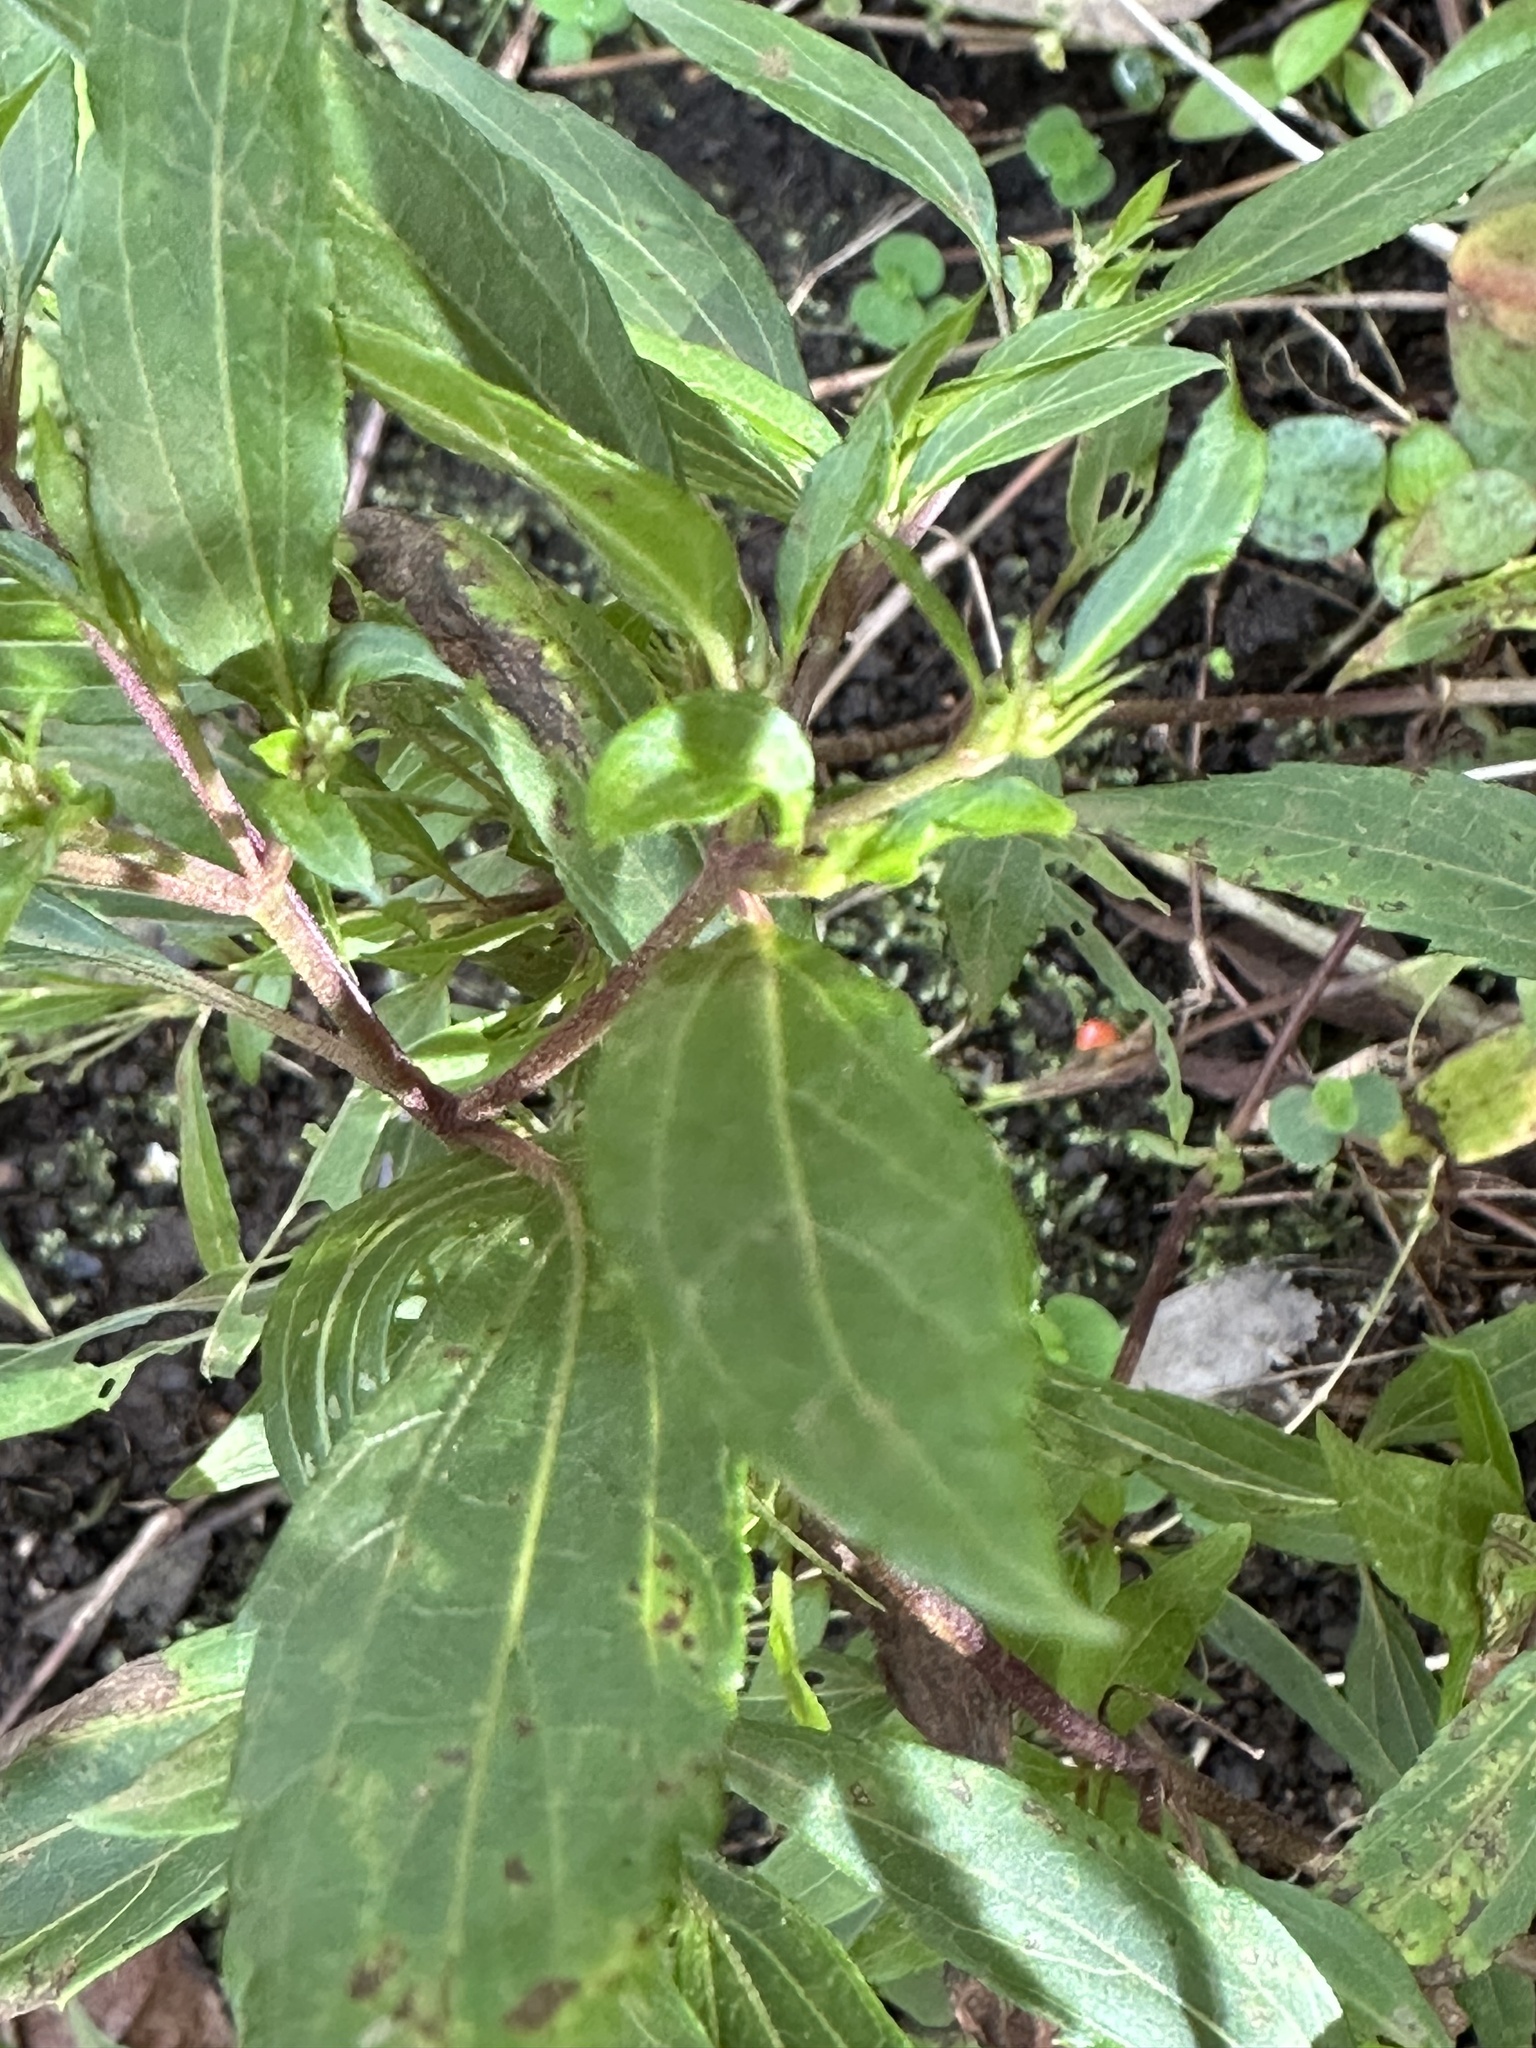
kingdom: Plantae
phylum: Tracheophyta
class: Magnoliopsida
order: Asterales
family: Asteraceae
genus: Ageratina
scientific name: Ageratina riparia
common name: Creeping croftonweed
